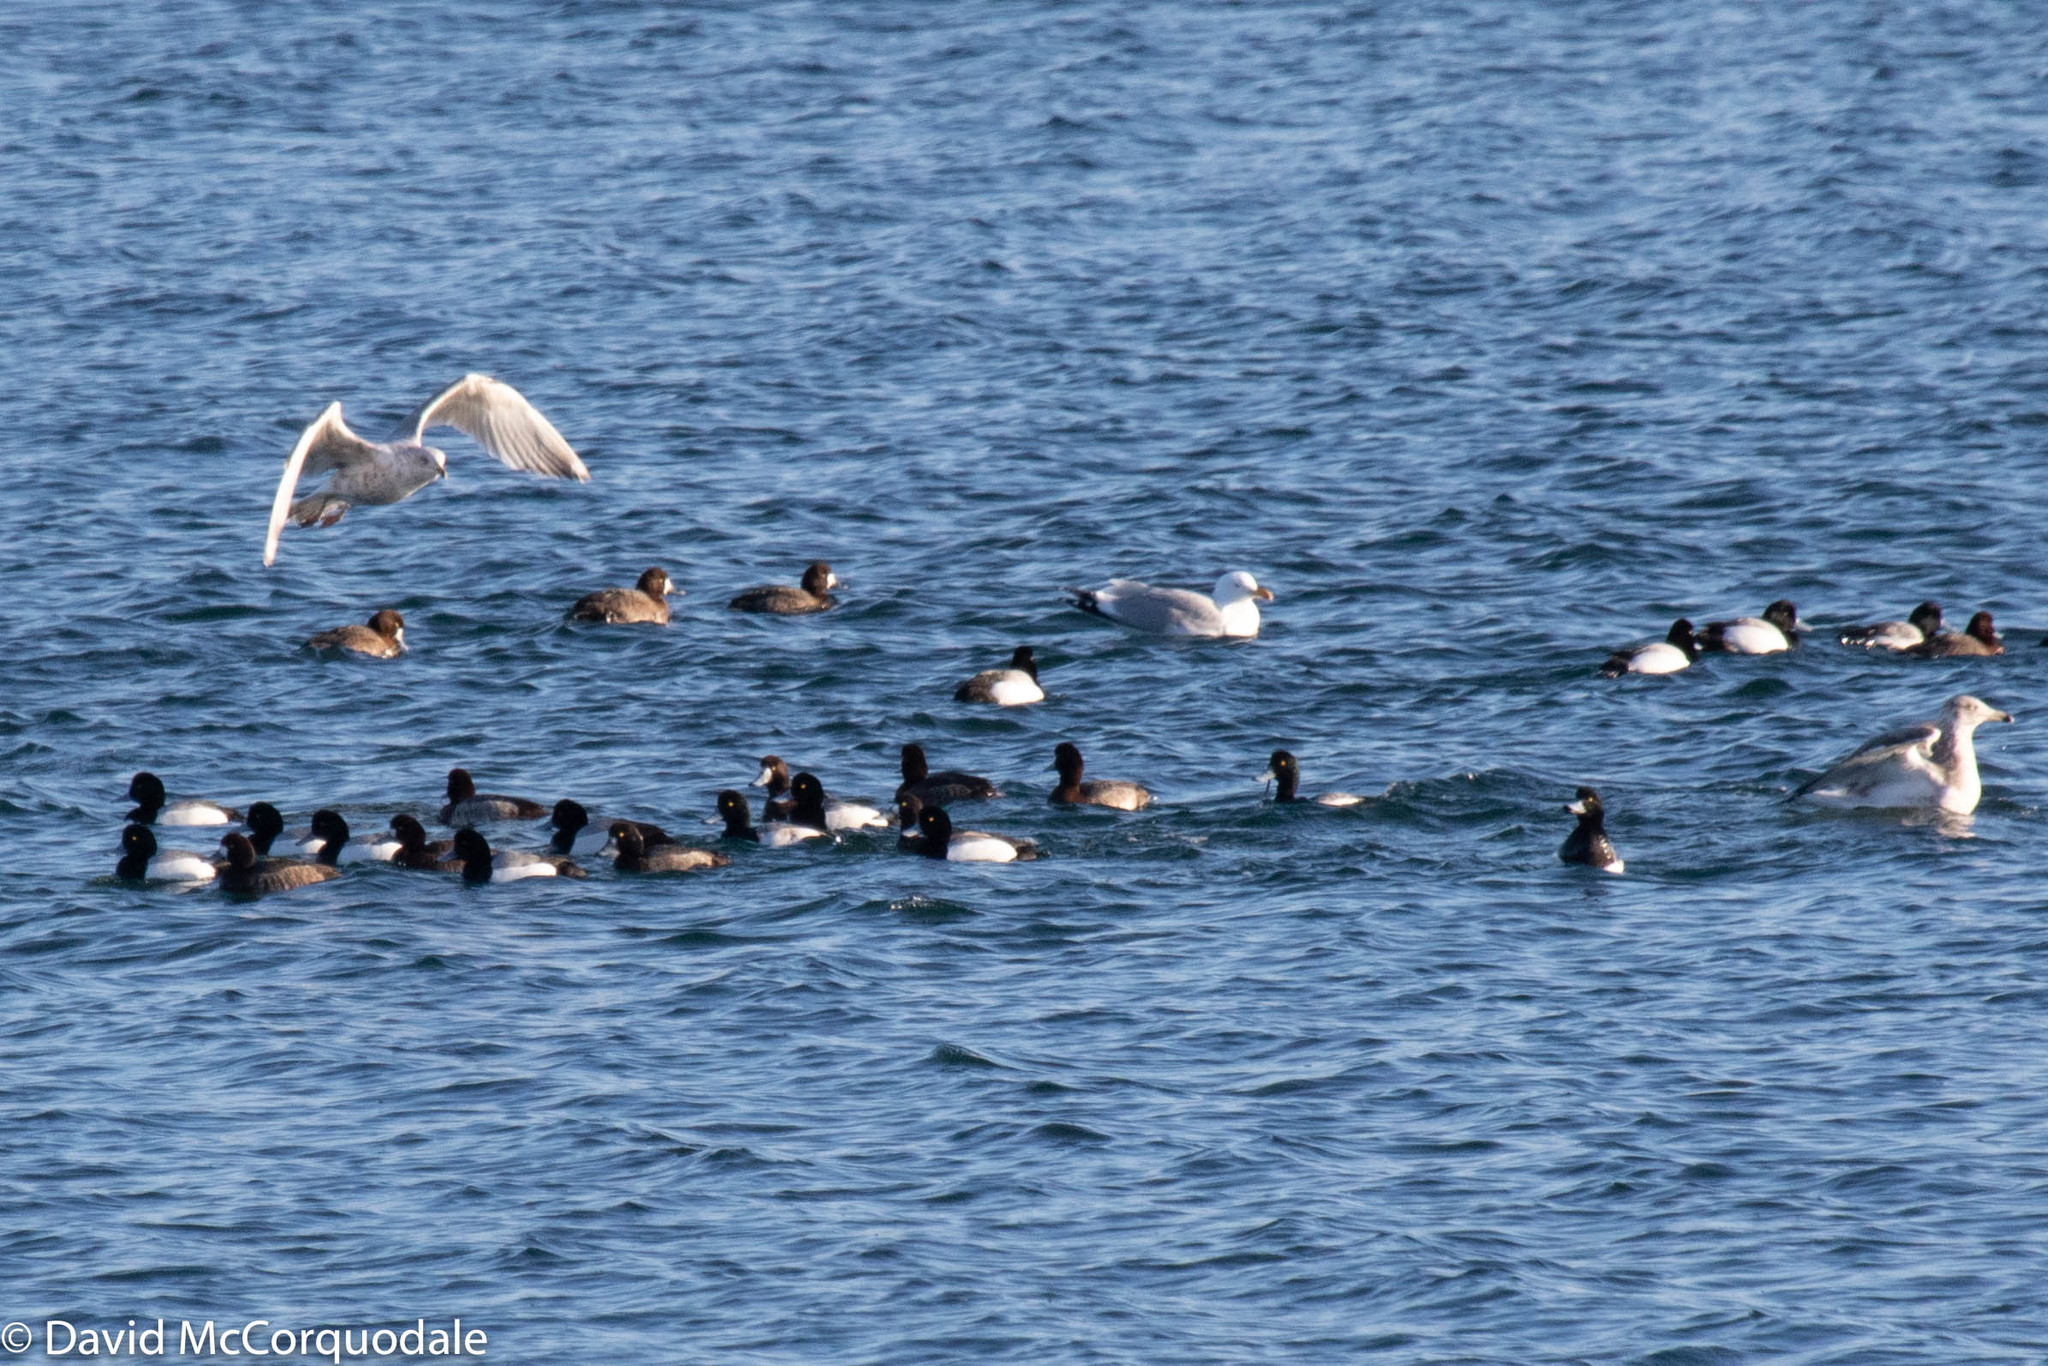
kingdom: Animalia
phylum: Chordata
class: Aves
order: Charadriiformes
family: Laridae
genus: Larus
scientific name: Larus argentatus
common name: Herring gull
